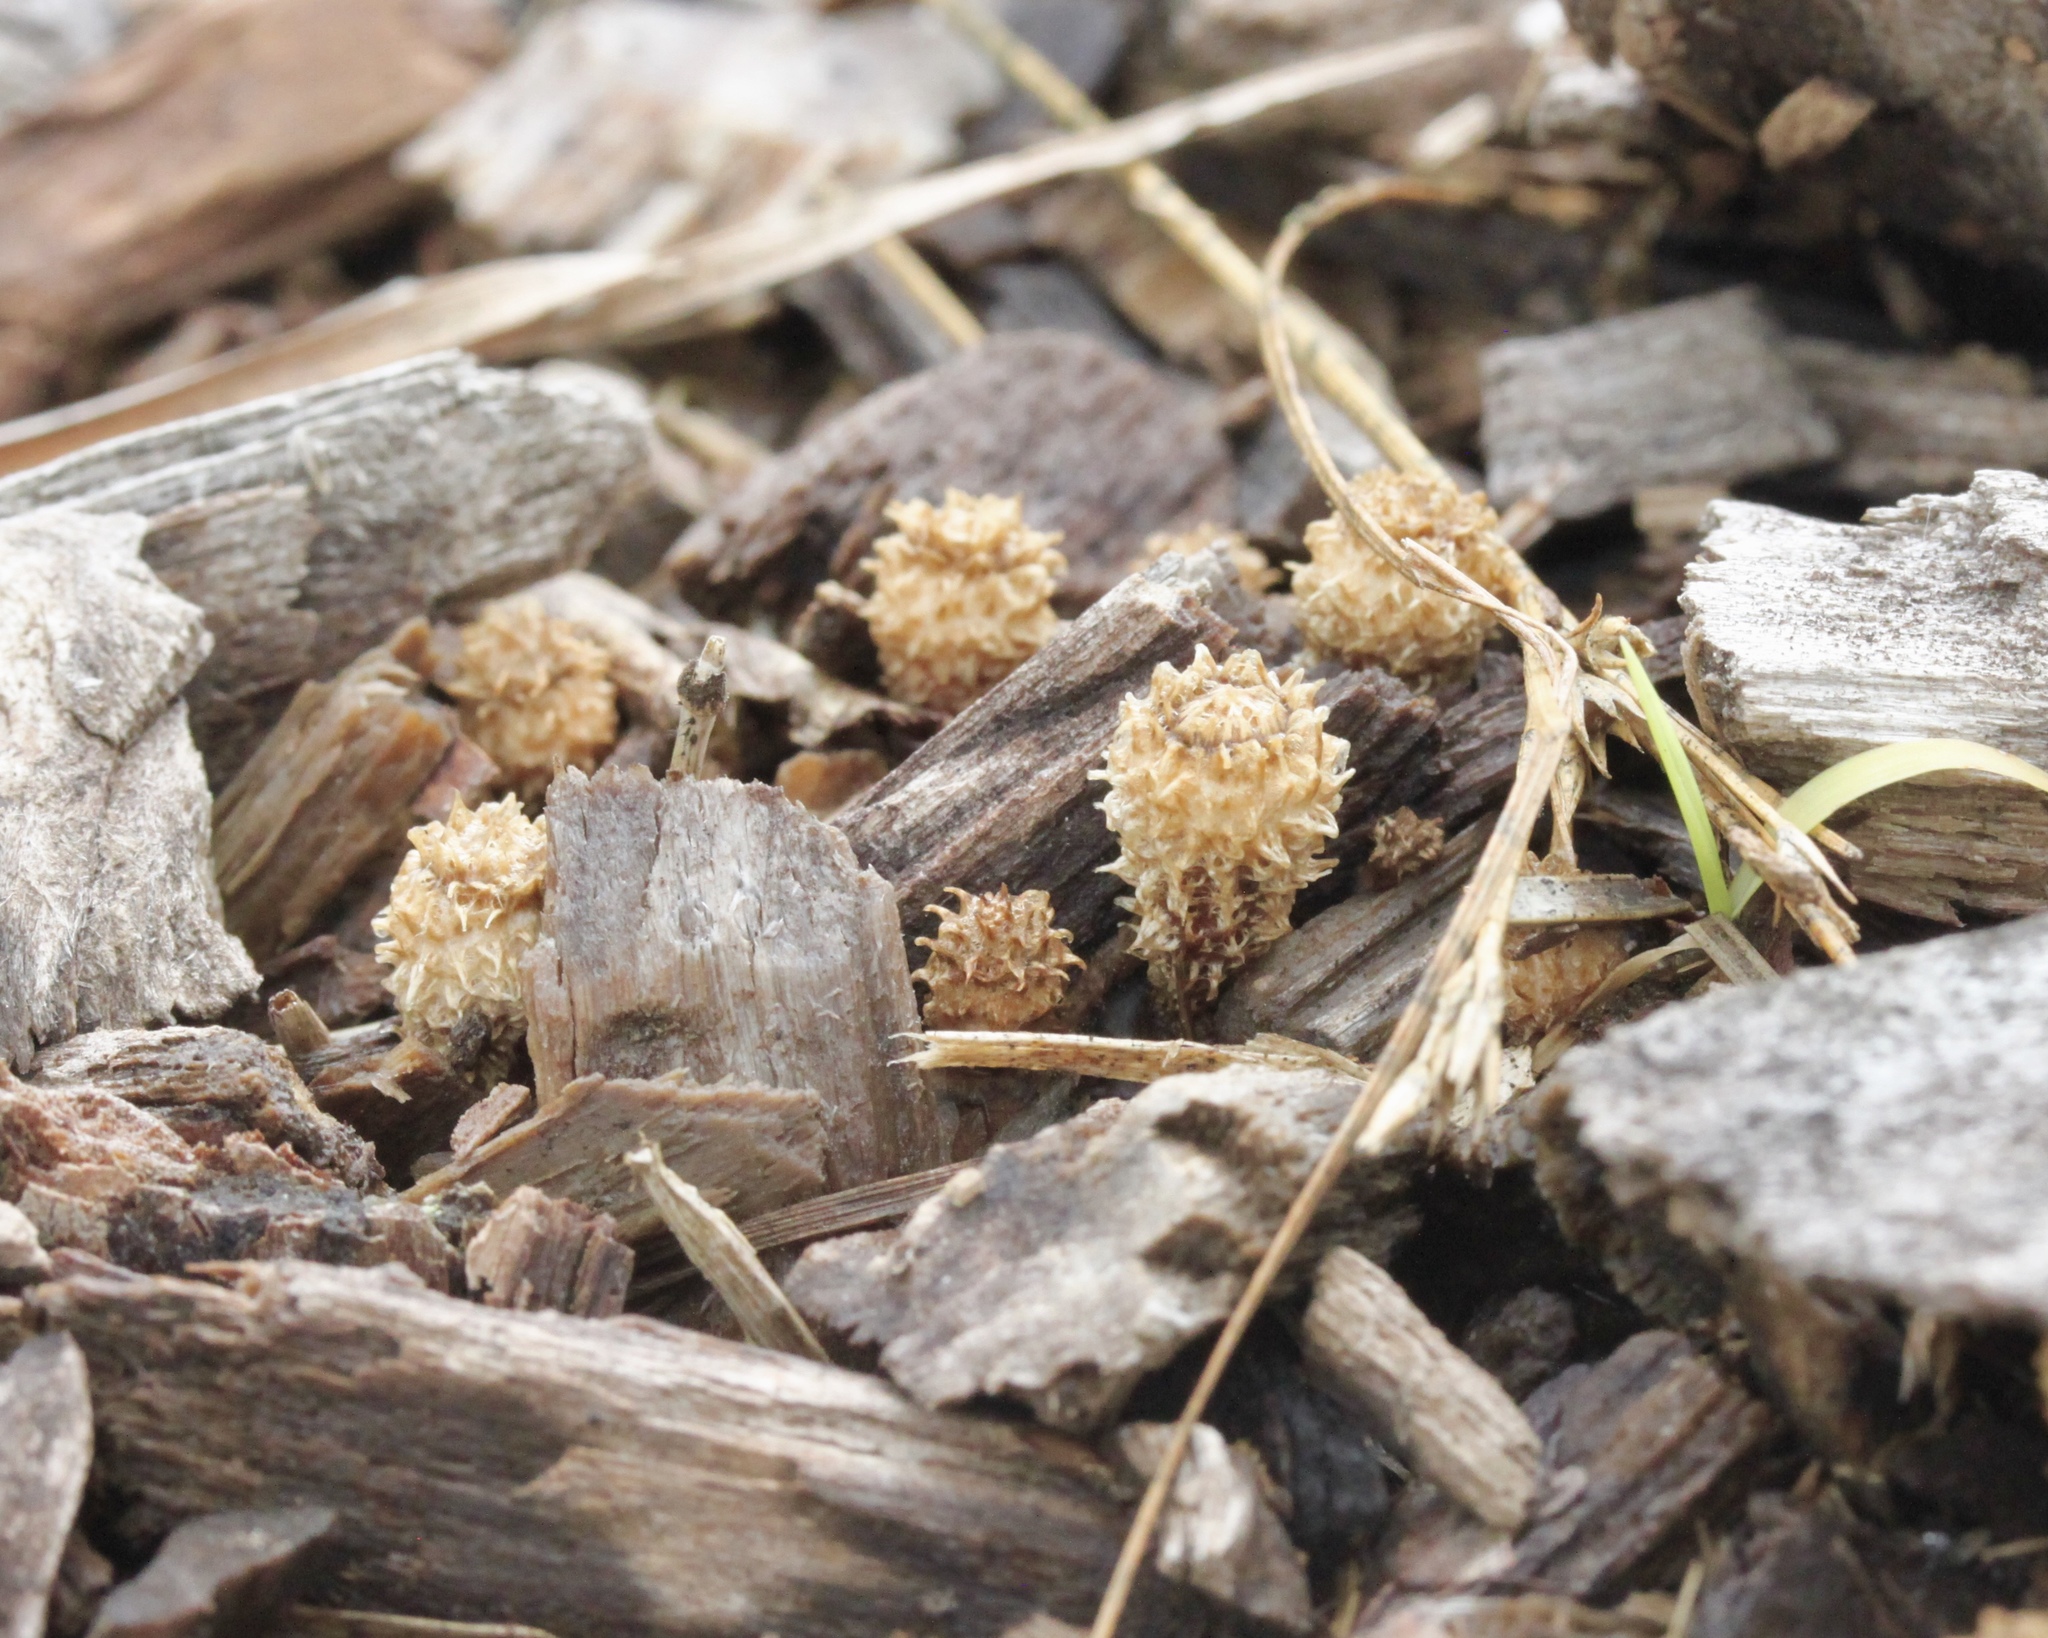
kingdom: Fungi
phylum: Basidiomycota
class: Agaricomycetes
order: Agaricales
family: Agaricaceae
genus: Cyathus
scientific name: Cyathus striatus
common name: Fluted bird's nest
